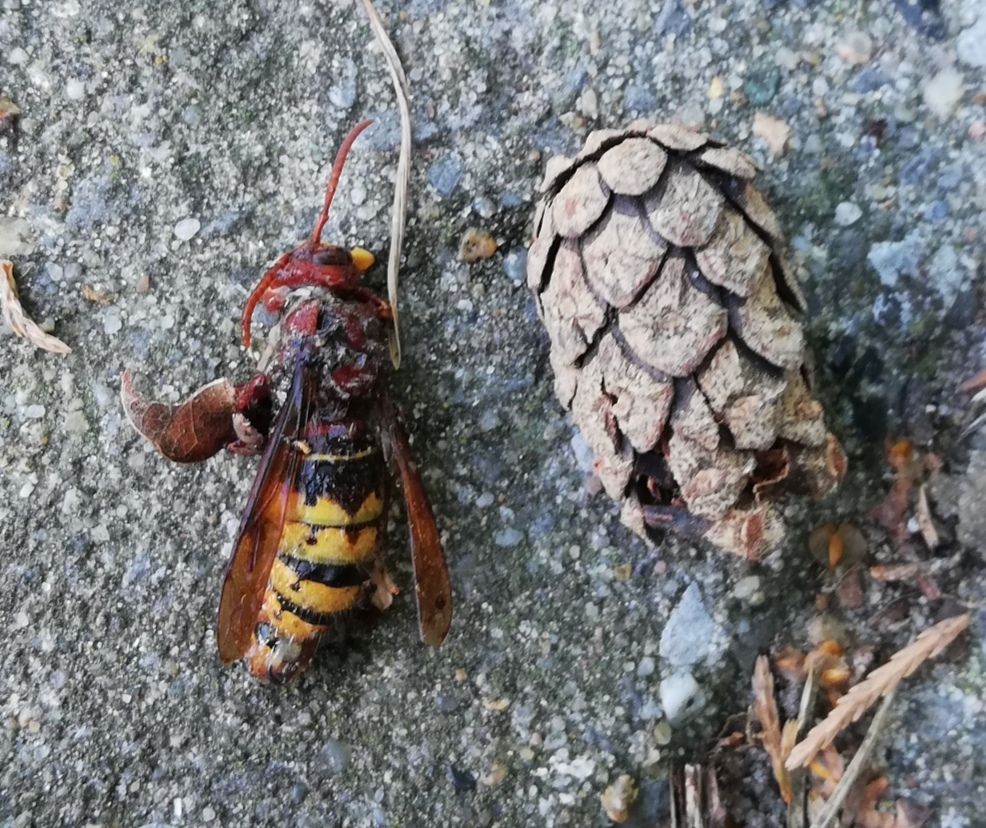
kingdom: Animalia
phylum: Arthropoda
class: Insecta
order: Hymenoptera
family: Vespidae
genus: Vespa
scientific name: Vespa crabro
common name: Hornet
